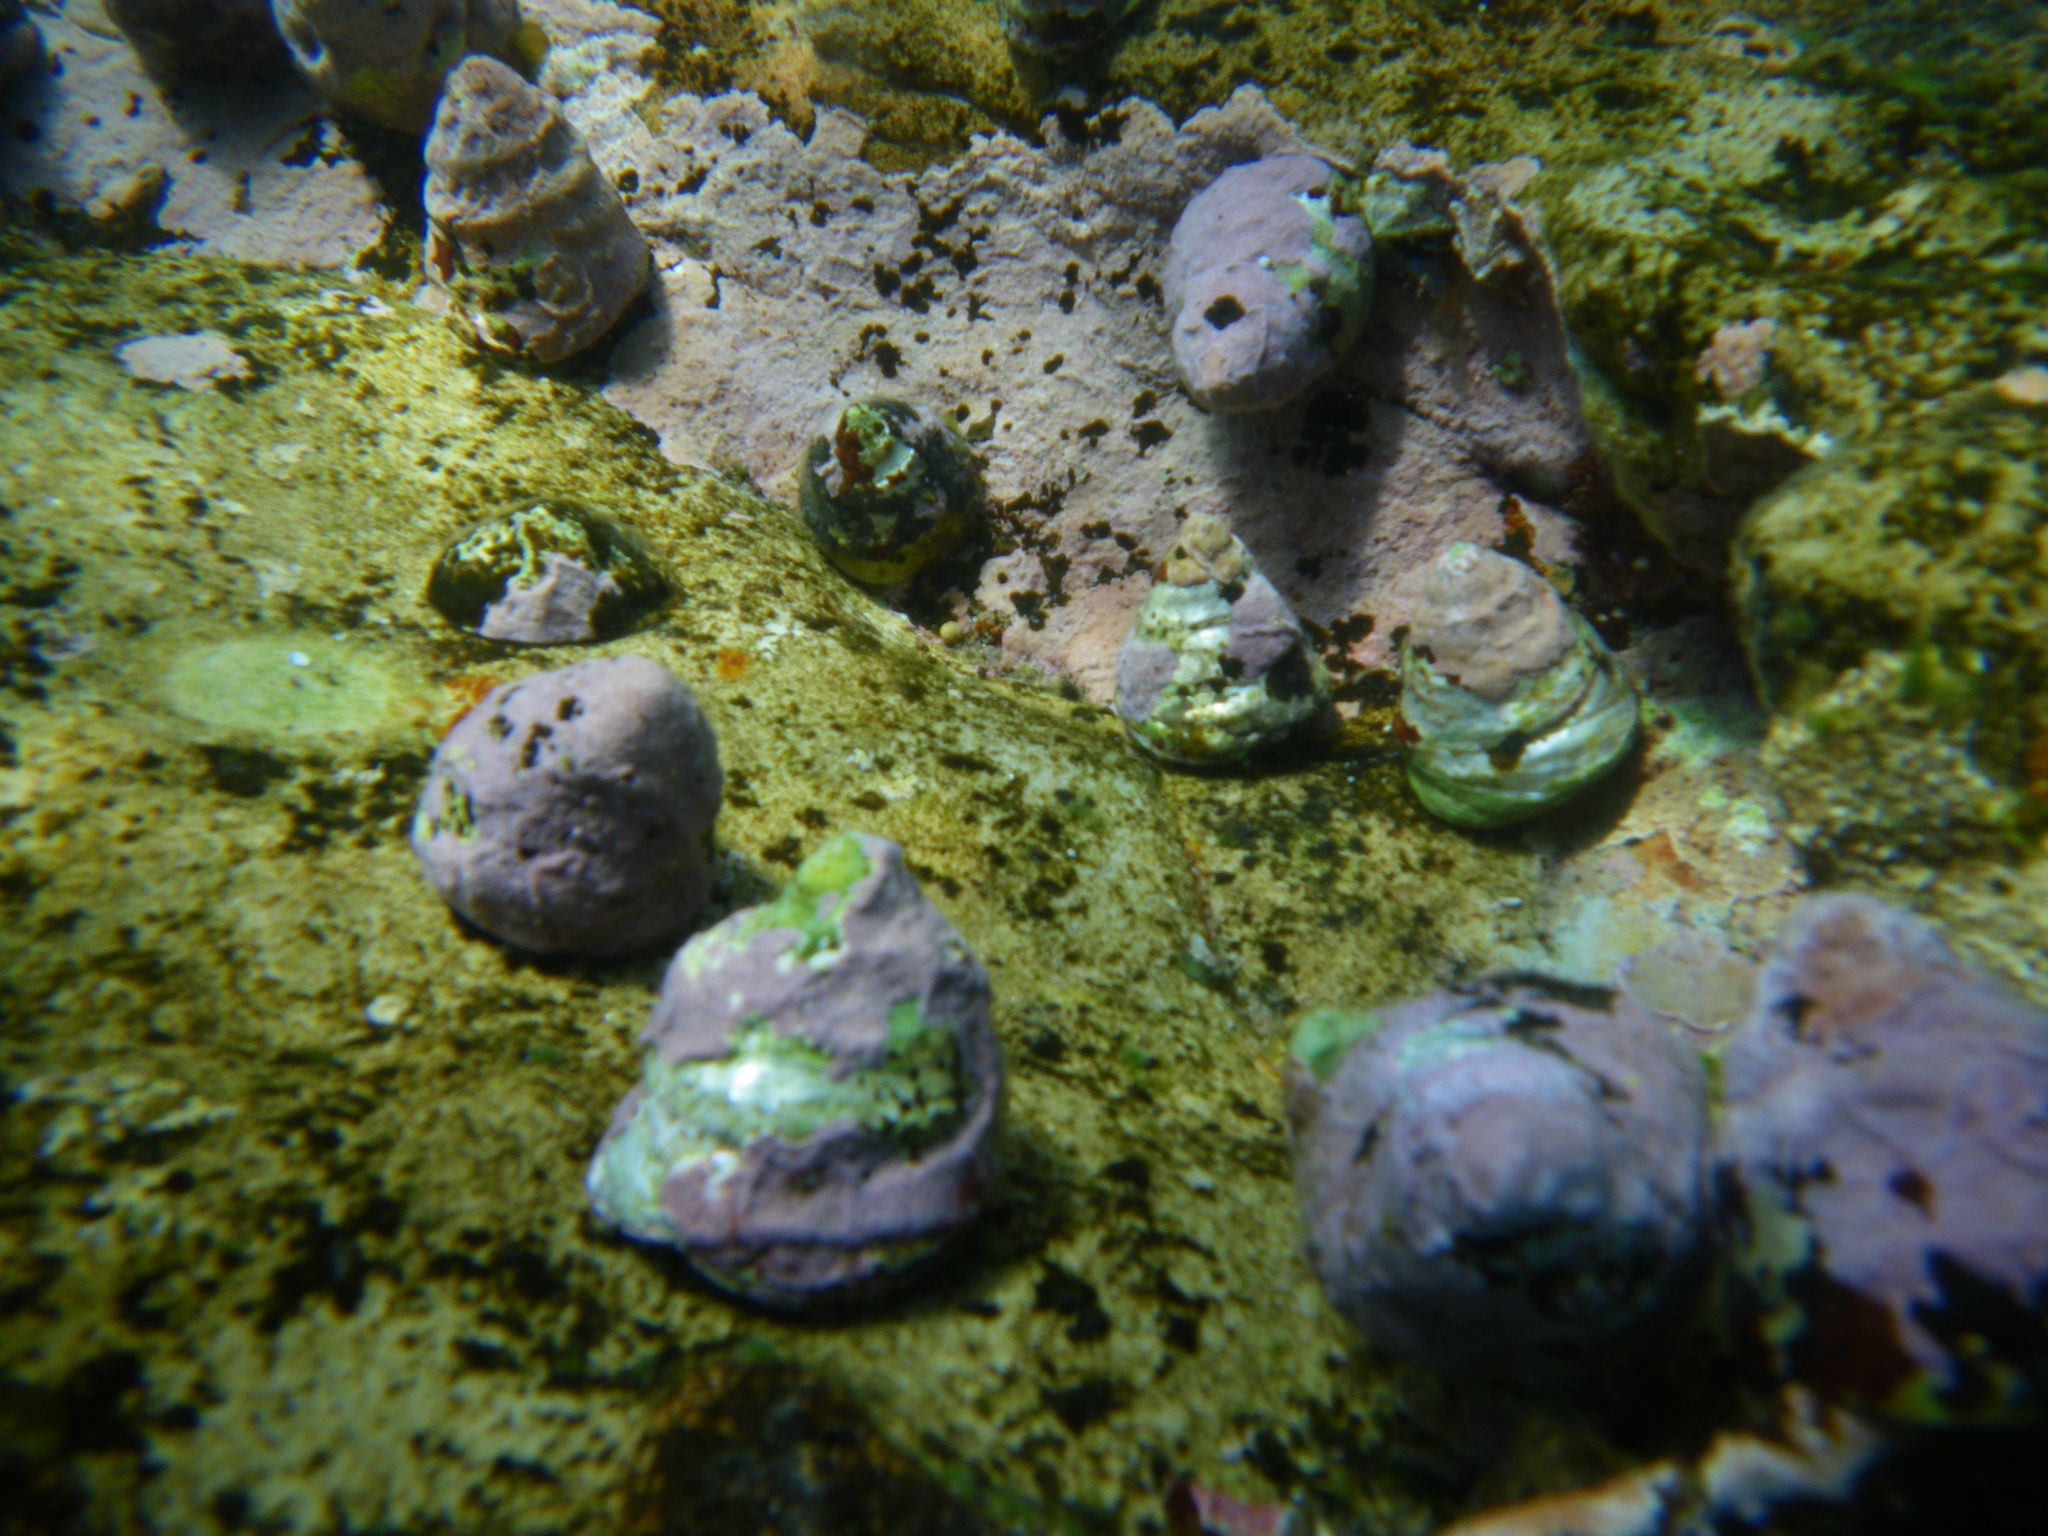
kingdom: Animalia
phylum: Mollusca
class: Gastropoda
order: Trochida
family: Turbinidae
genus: Astralium
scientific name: Astralium tentoriiforme
